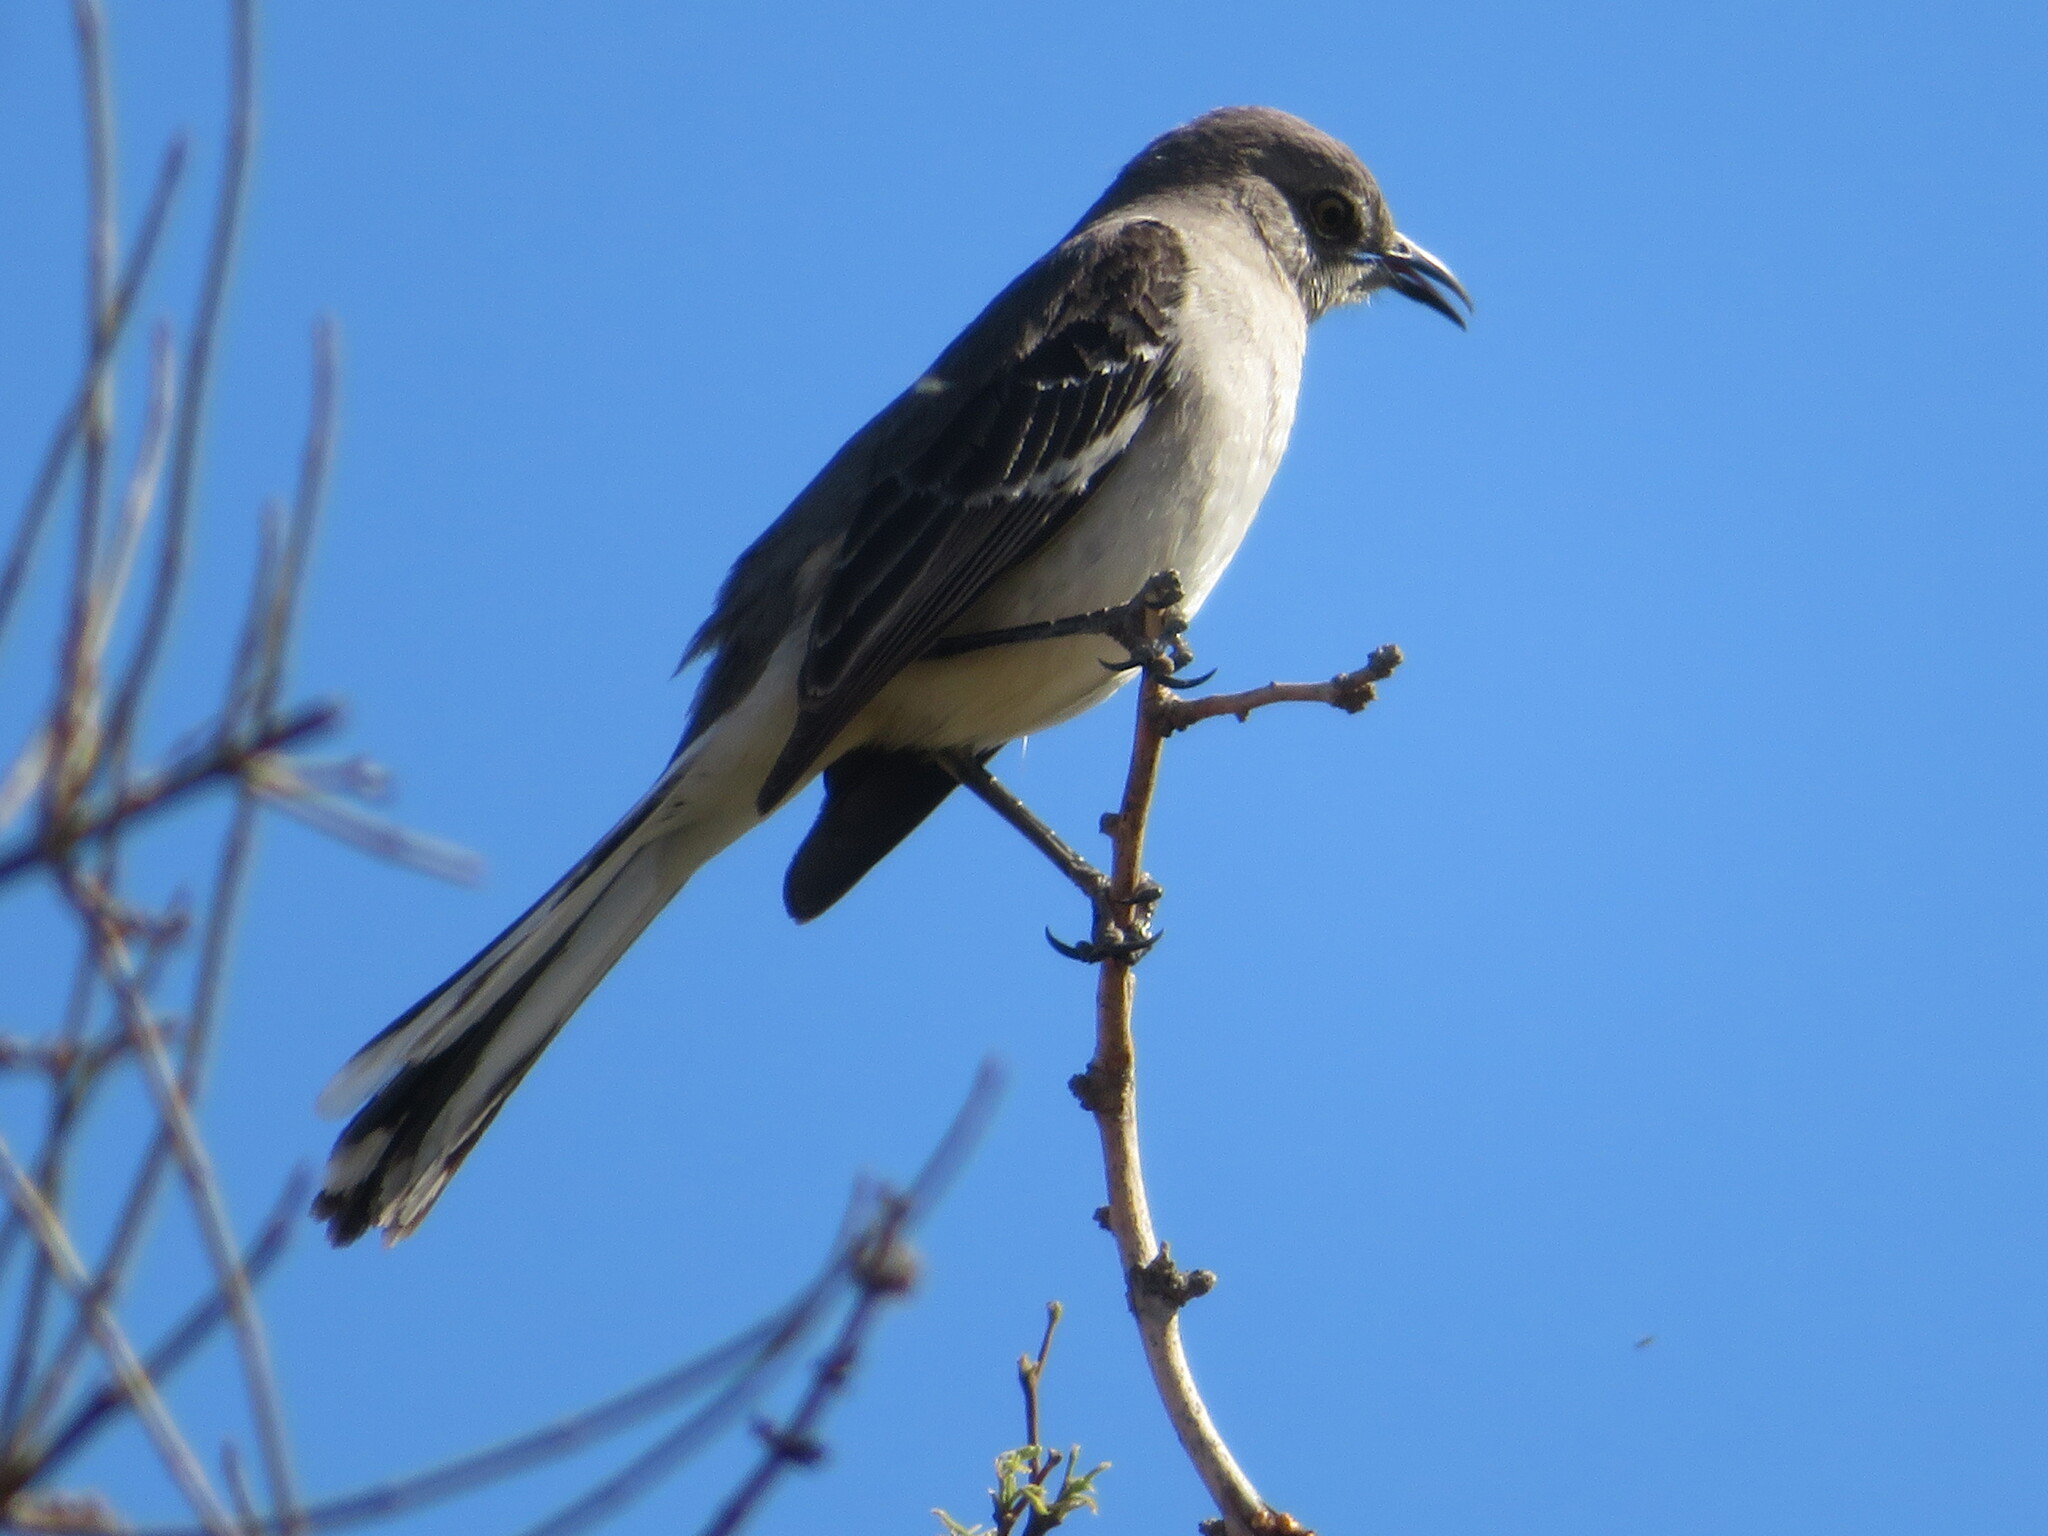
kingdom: Animalia
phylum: Chordata
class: Aves
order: Passeriformes
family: Mimidae
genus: Mimus
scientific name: Mimus polyglottos
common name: Northern mockingbird
